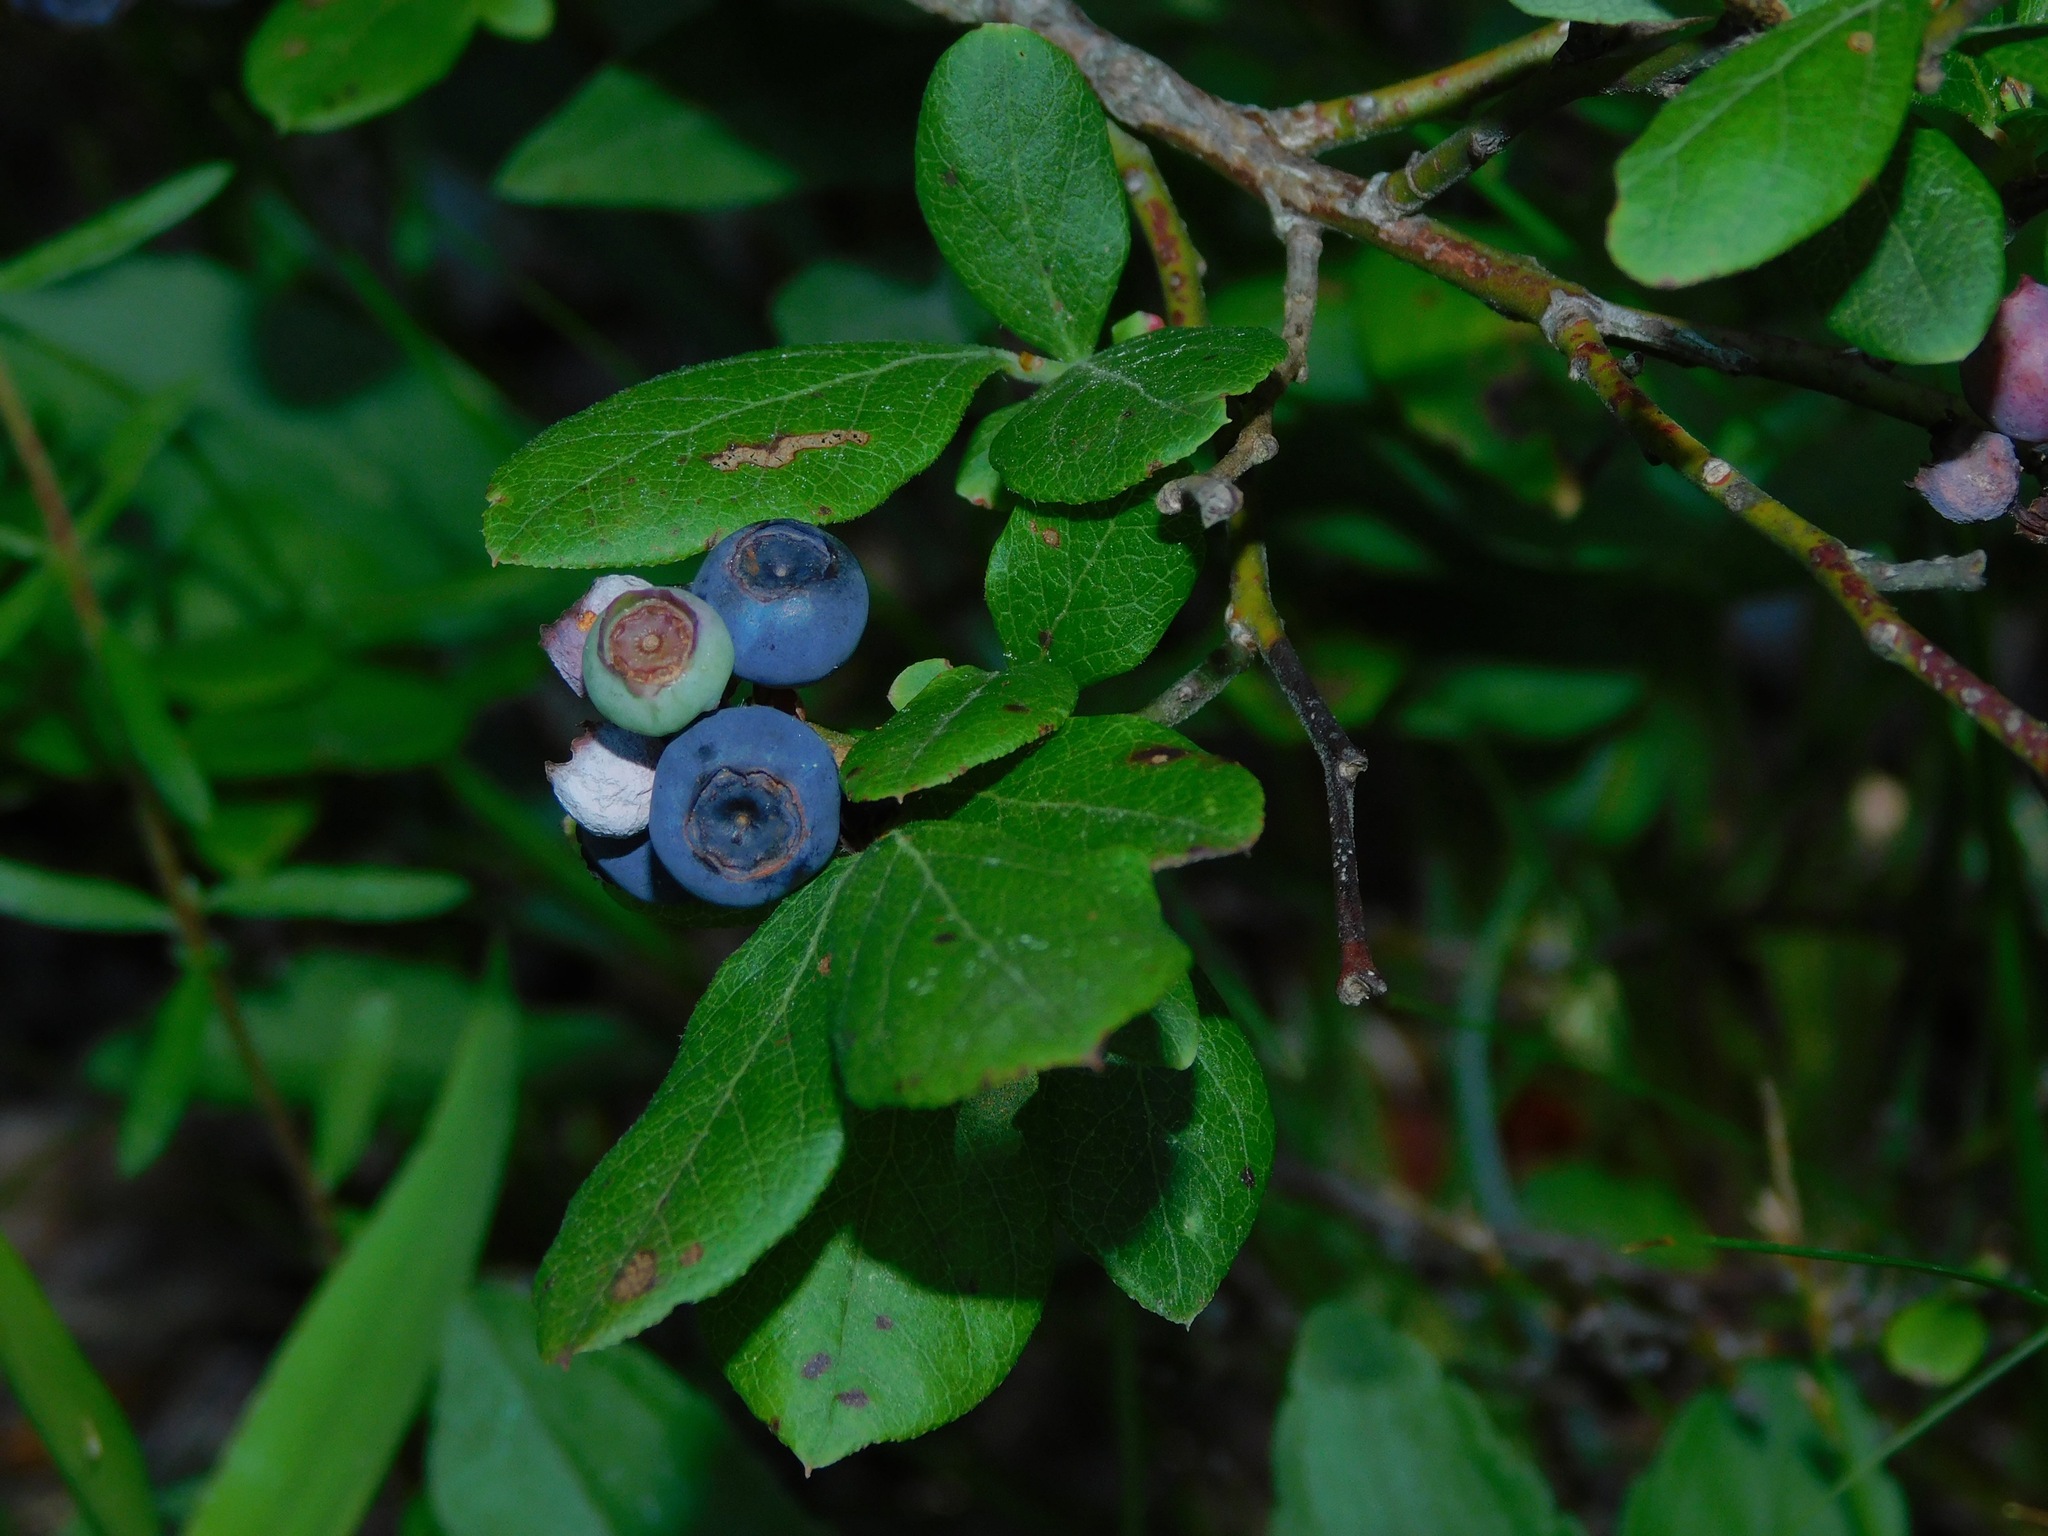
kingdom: Plantae
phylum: Tracheophyta
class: Magnoliopsida
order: Ericales
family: Ericaceae
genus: Vaccinium
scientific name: Vaccinium pallidum
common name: Blue ridge blueberry
